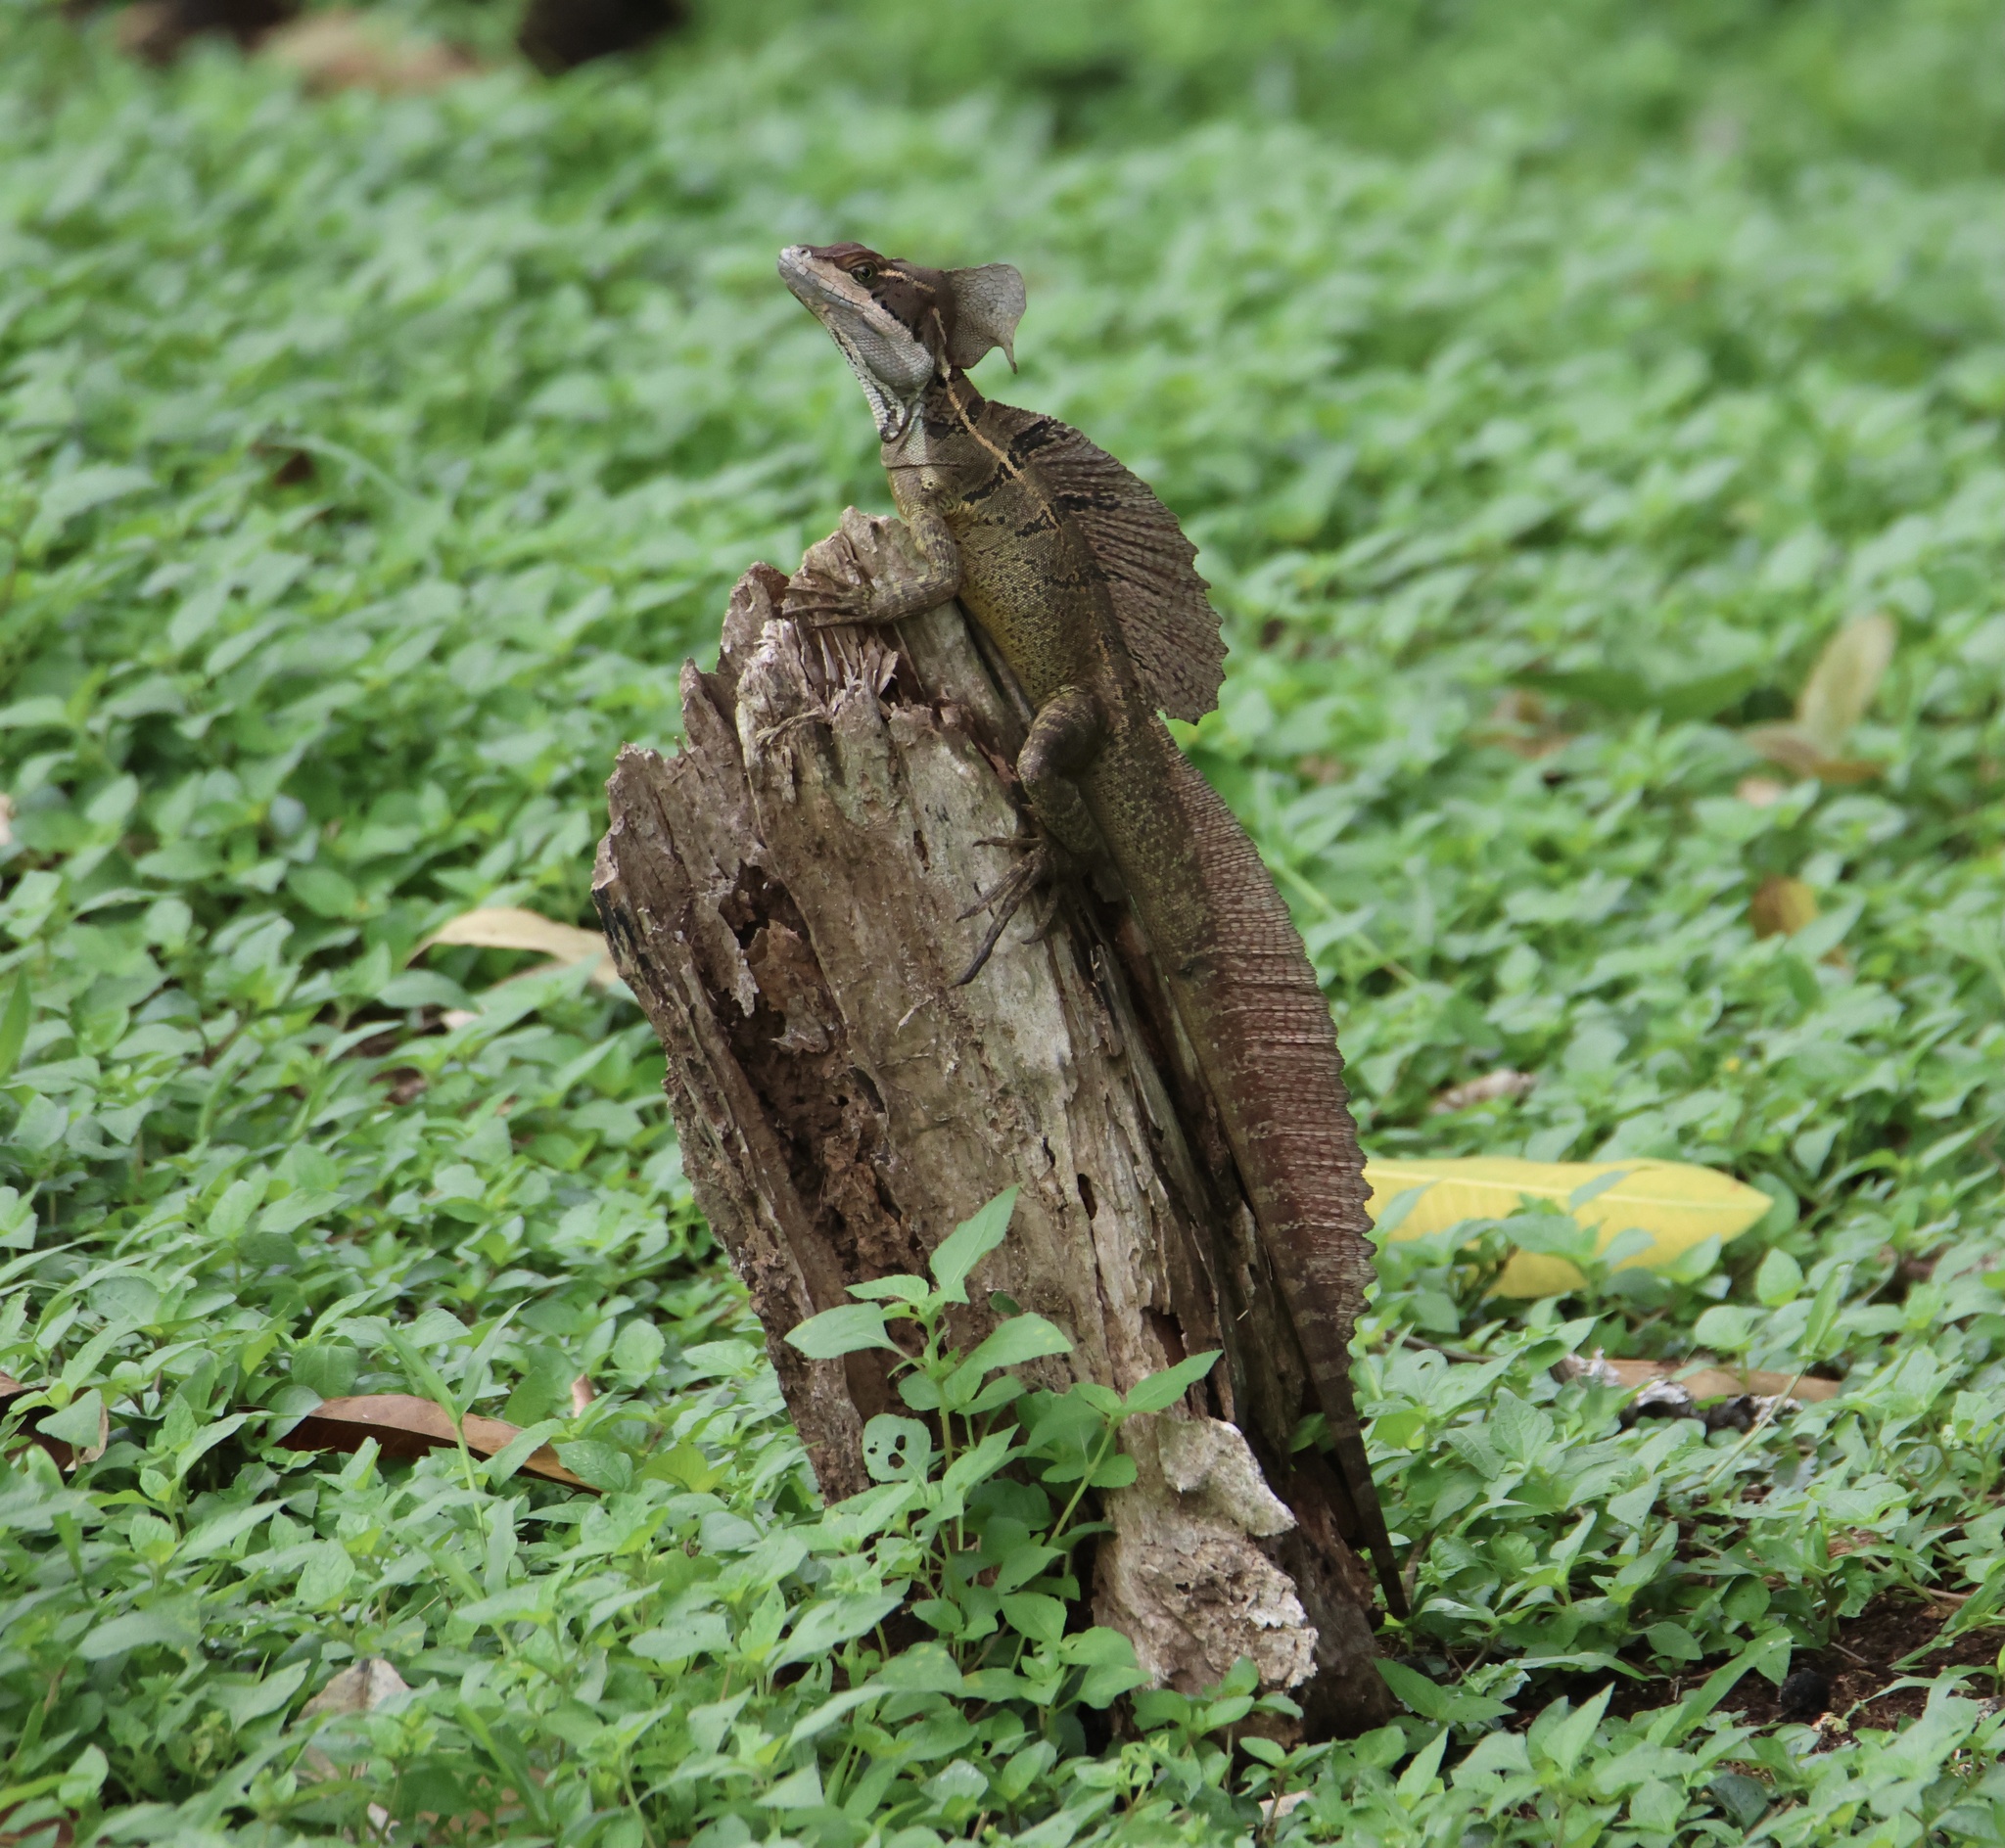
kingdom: Animalia
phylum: Chordata
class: Squamata
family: Corytophanidae
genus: Basiliscus
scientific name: Basiliscus basiliscus
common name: Common basilisk
